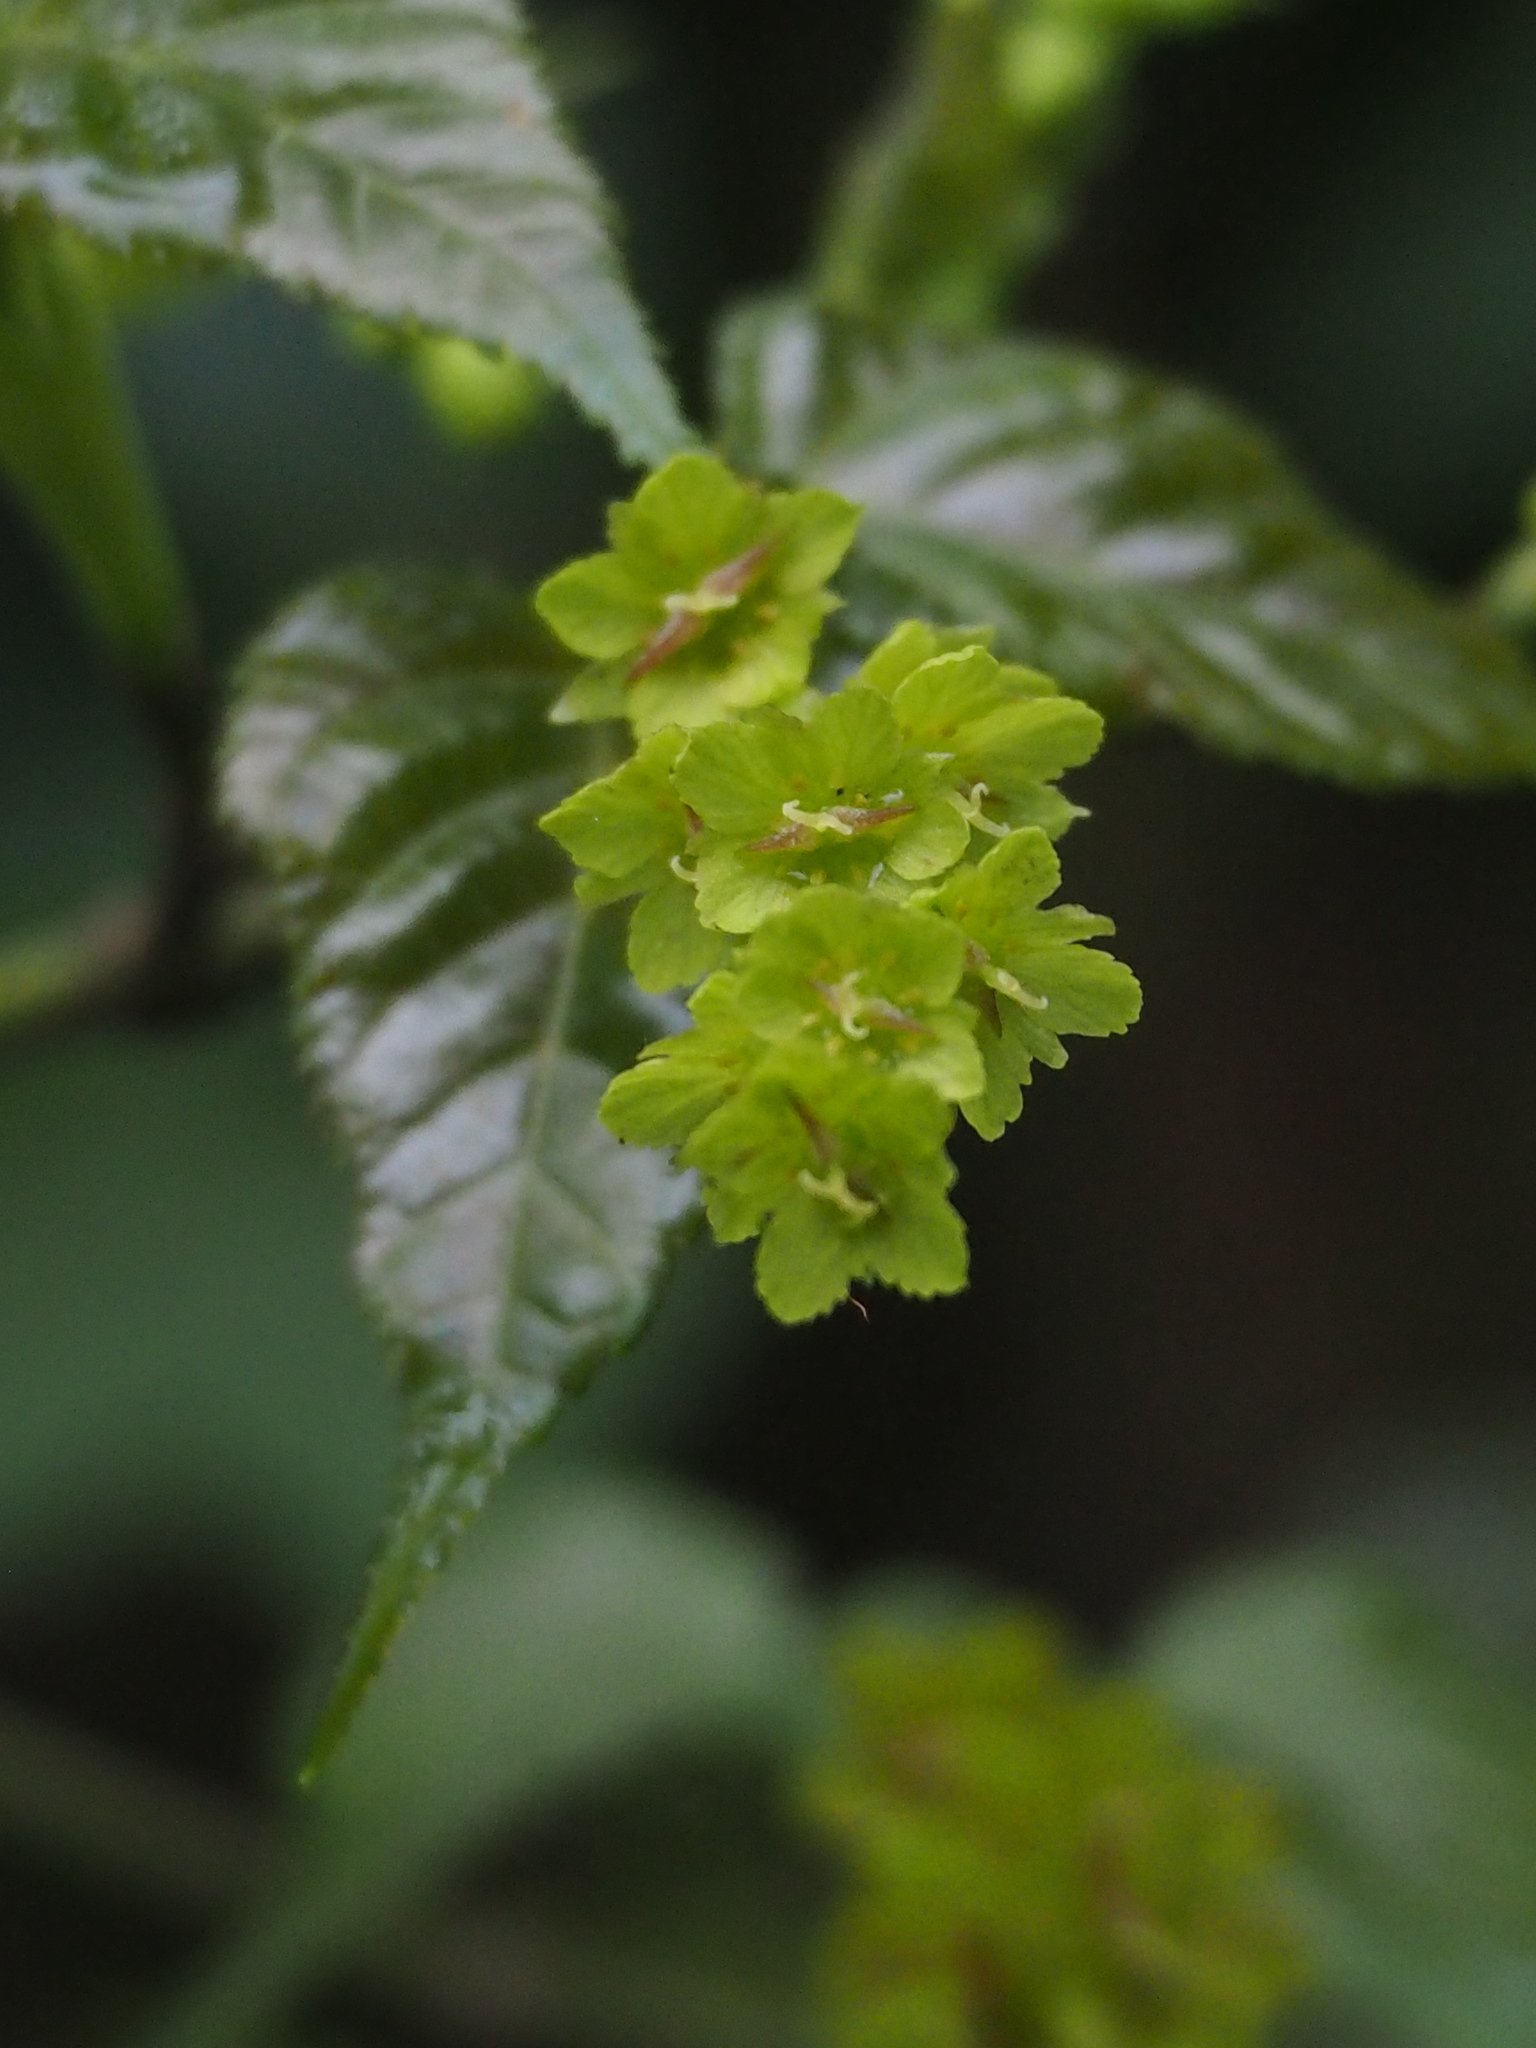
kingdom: Plantae
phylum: Tracheophyta
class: Magnoliopsida
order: Sapindales
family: Sapindaceae
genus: Acer
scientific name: Acer caudatifolium
